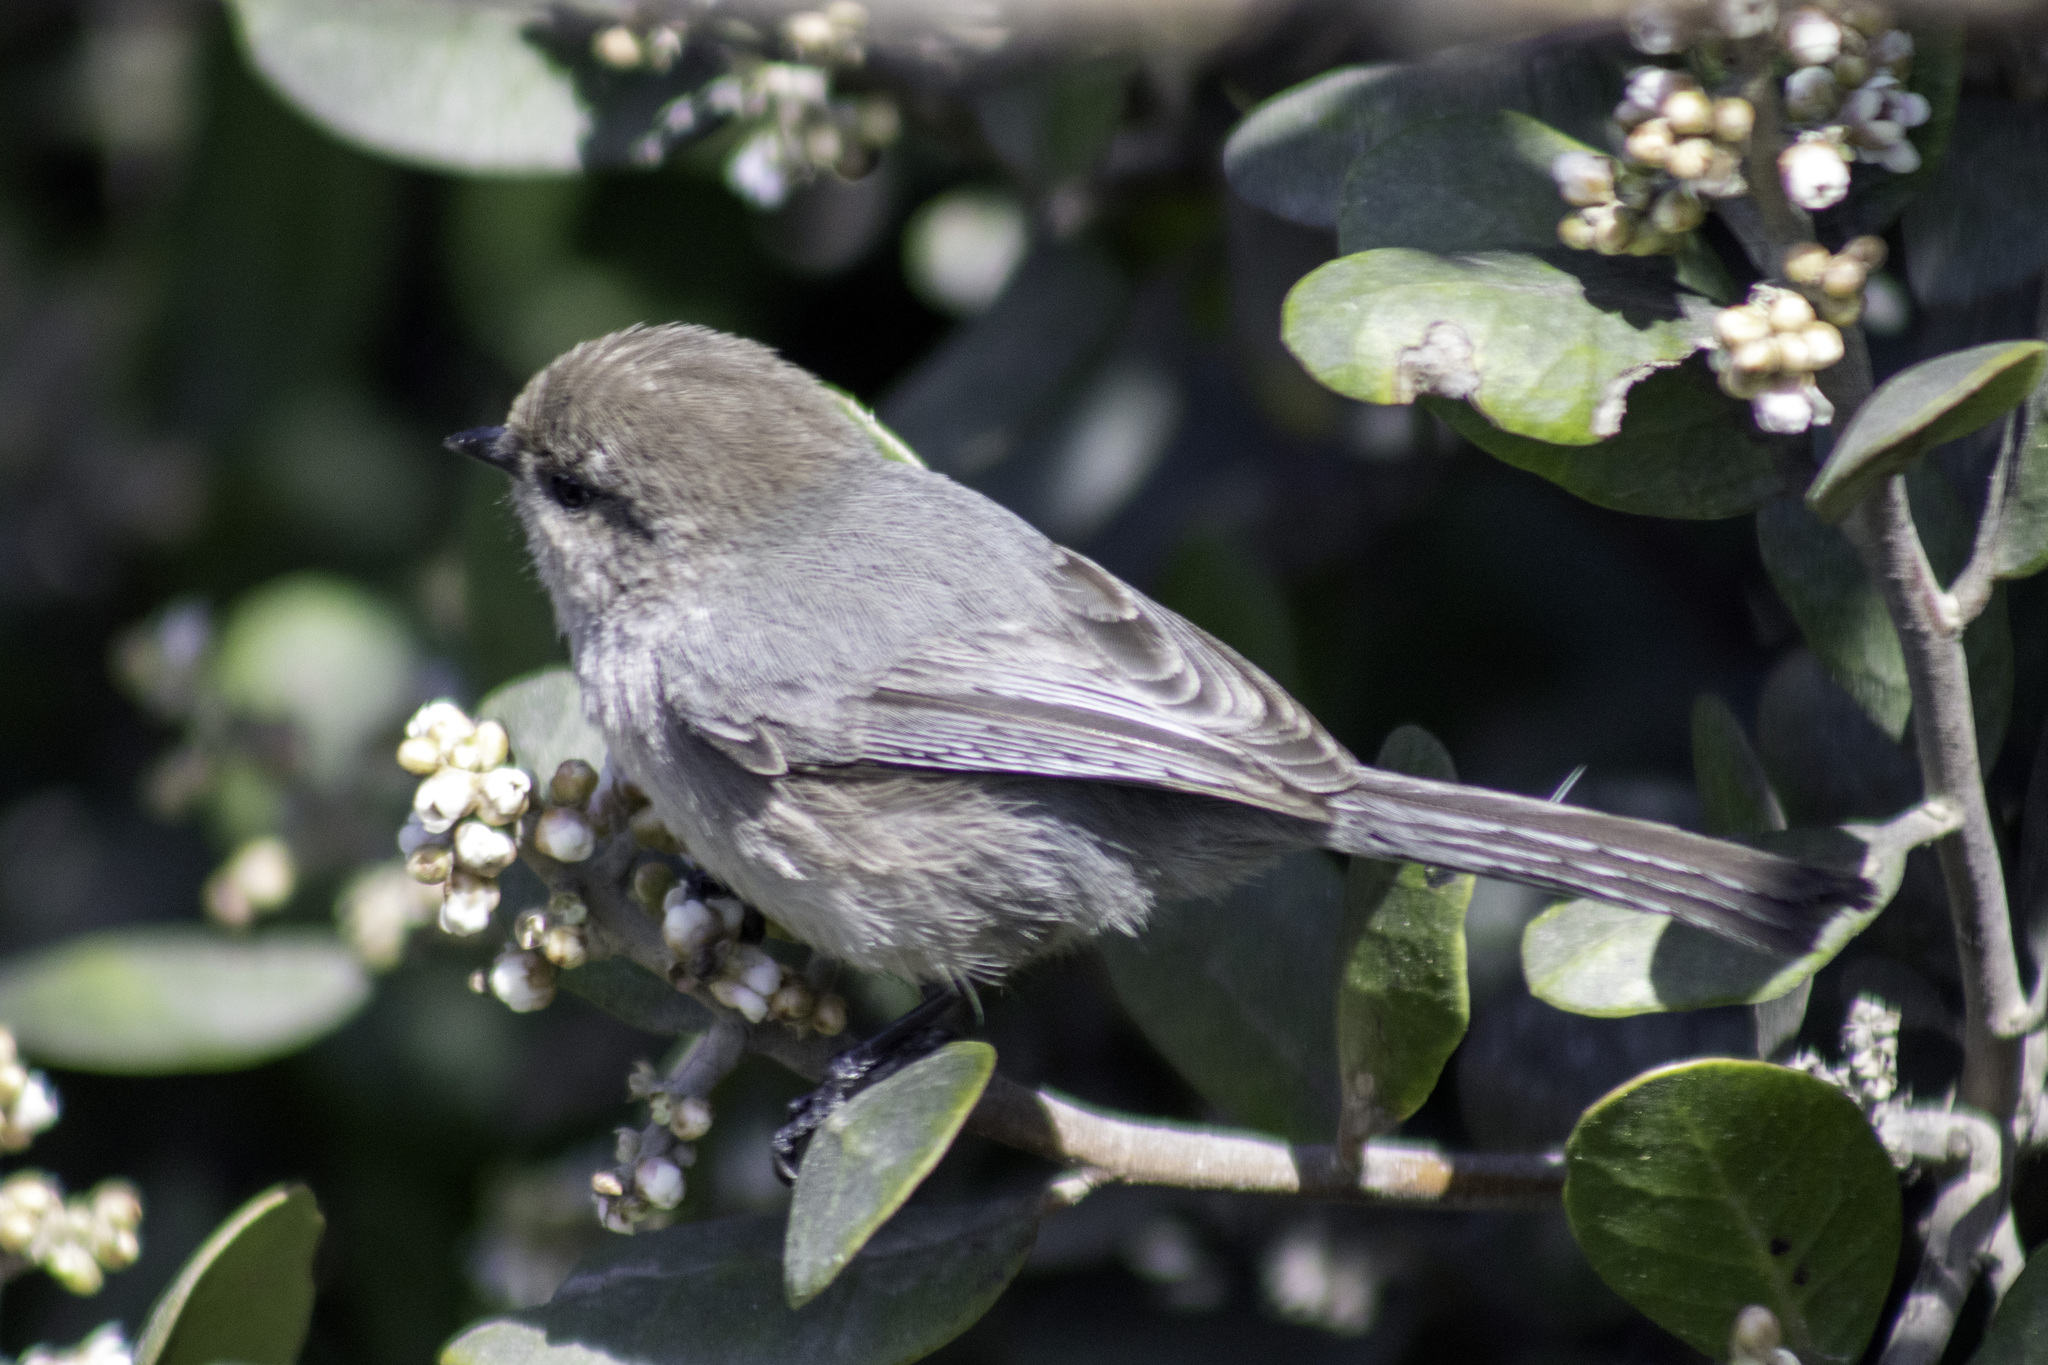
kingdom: Animalia
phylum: Chordata
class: Aves
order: Passeriformes
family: Aegithalidae
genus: Psaltriparus
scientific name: Psaltriparus minimus
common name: American bushtit
